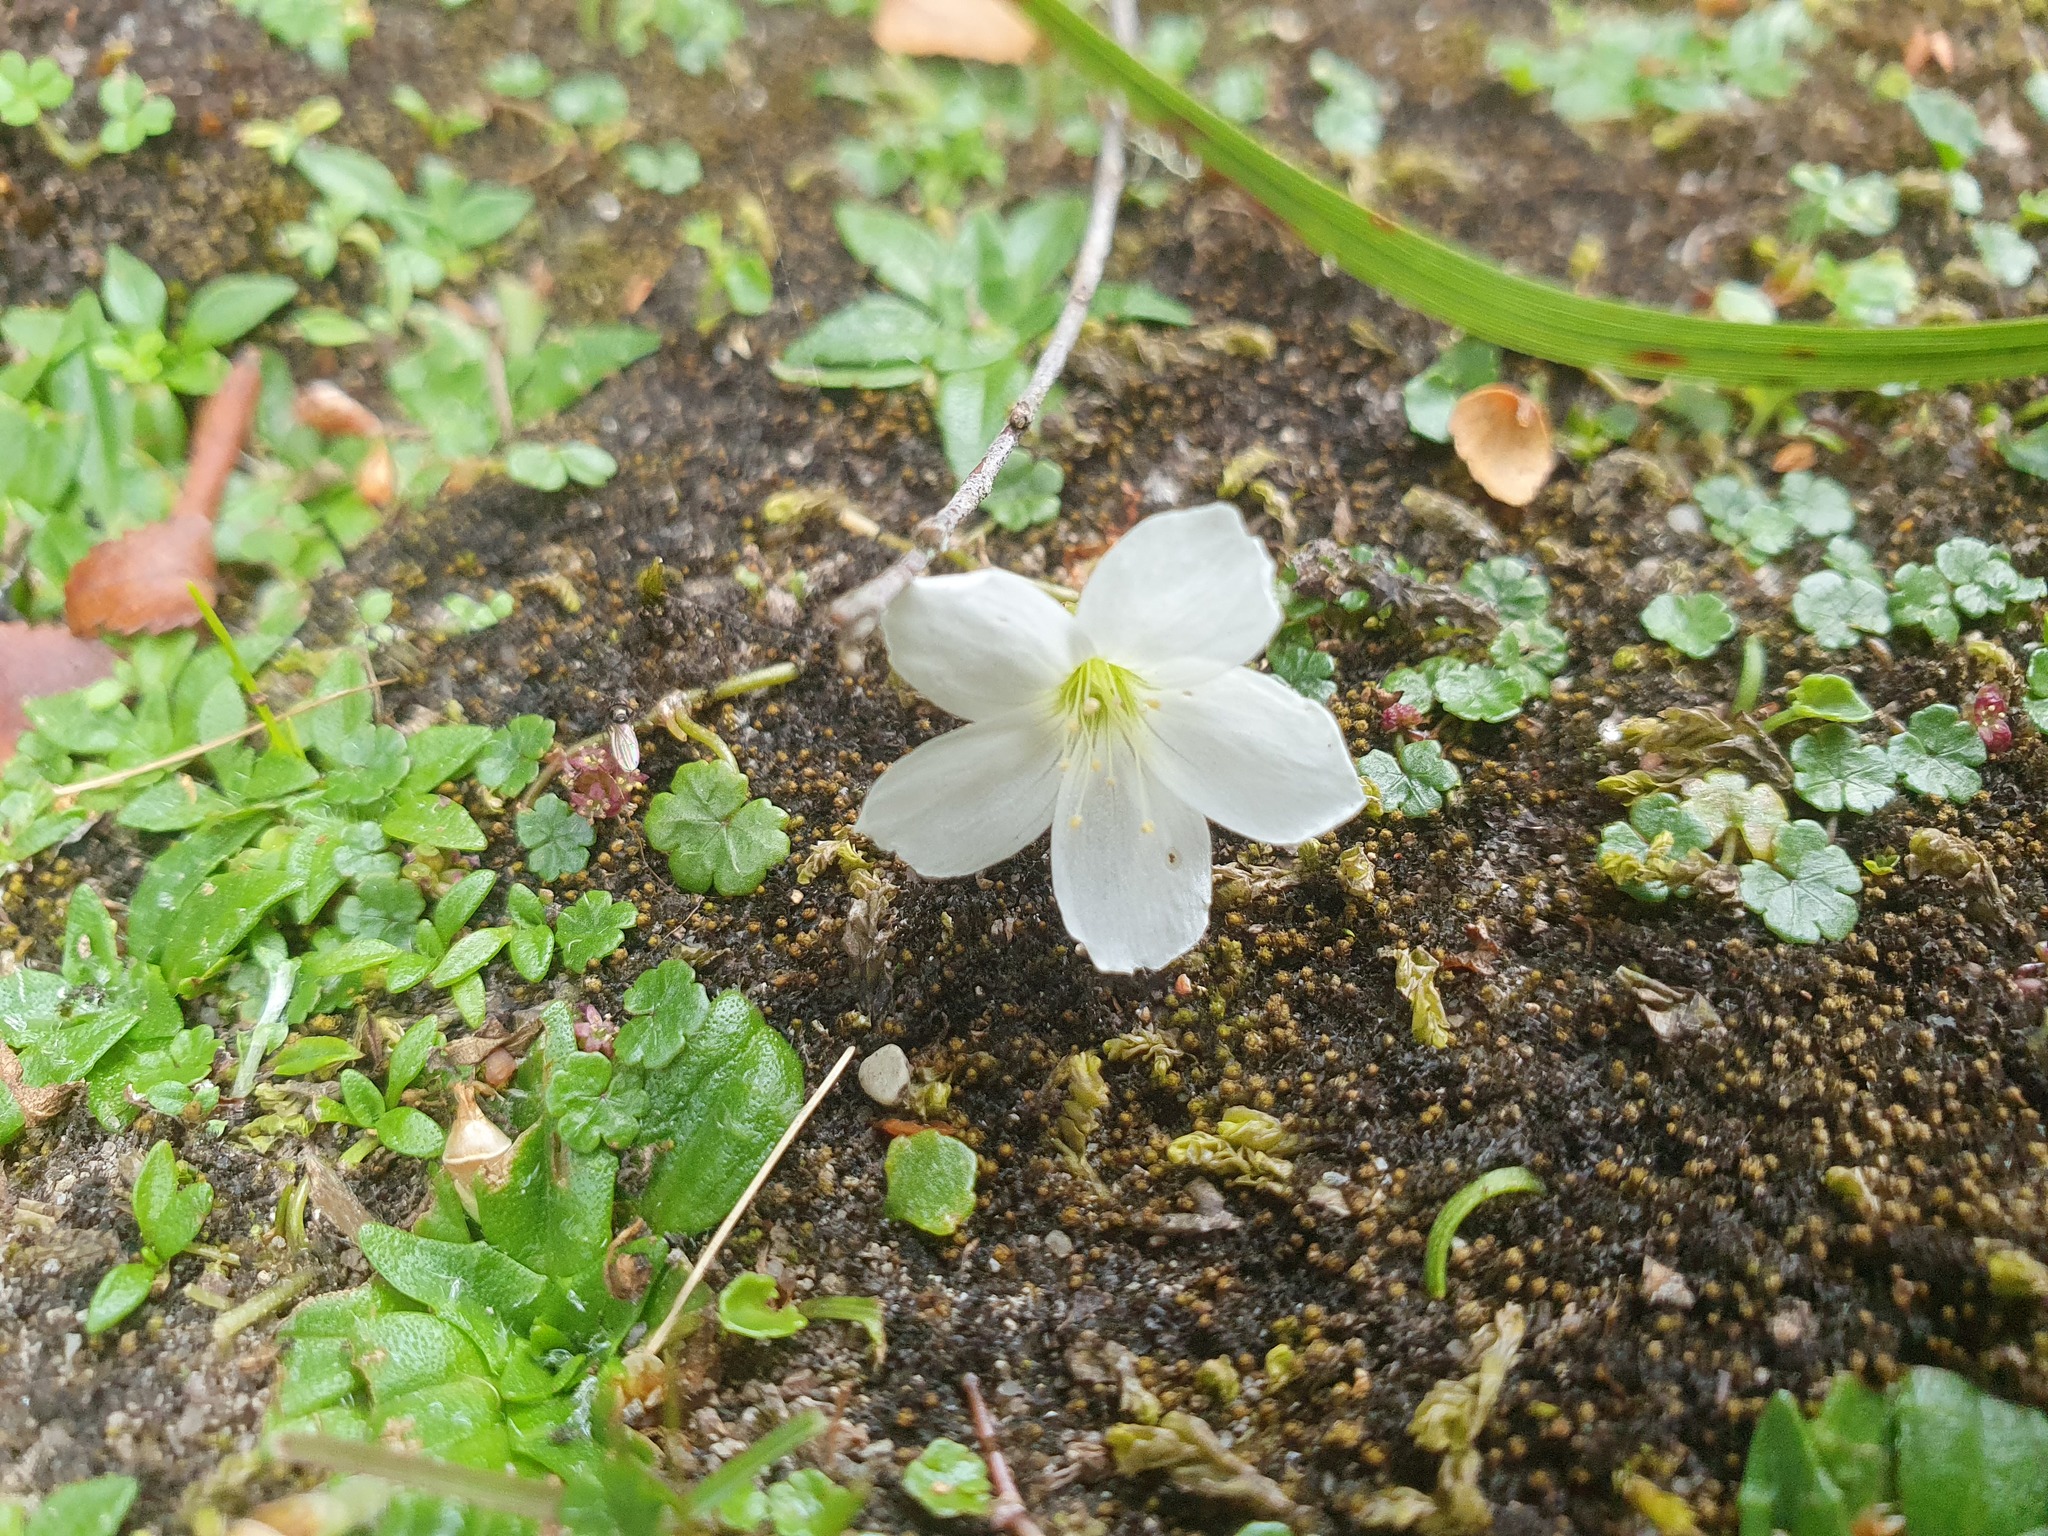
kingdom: Plantae
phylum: Tracheophyta
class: Magnoliopsida
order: Oxalidales
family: Oxalidaceae
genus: Oxalis
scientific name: Oxalis magellanica
